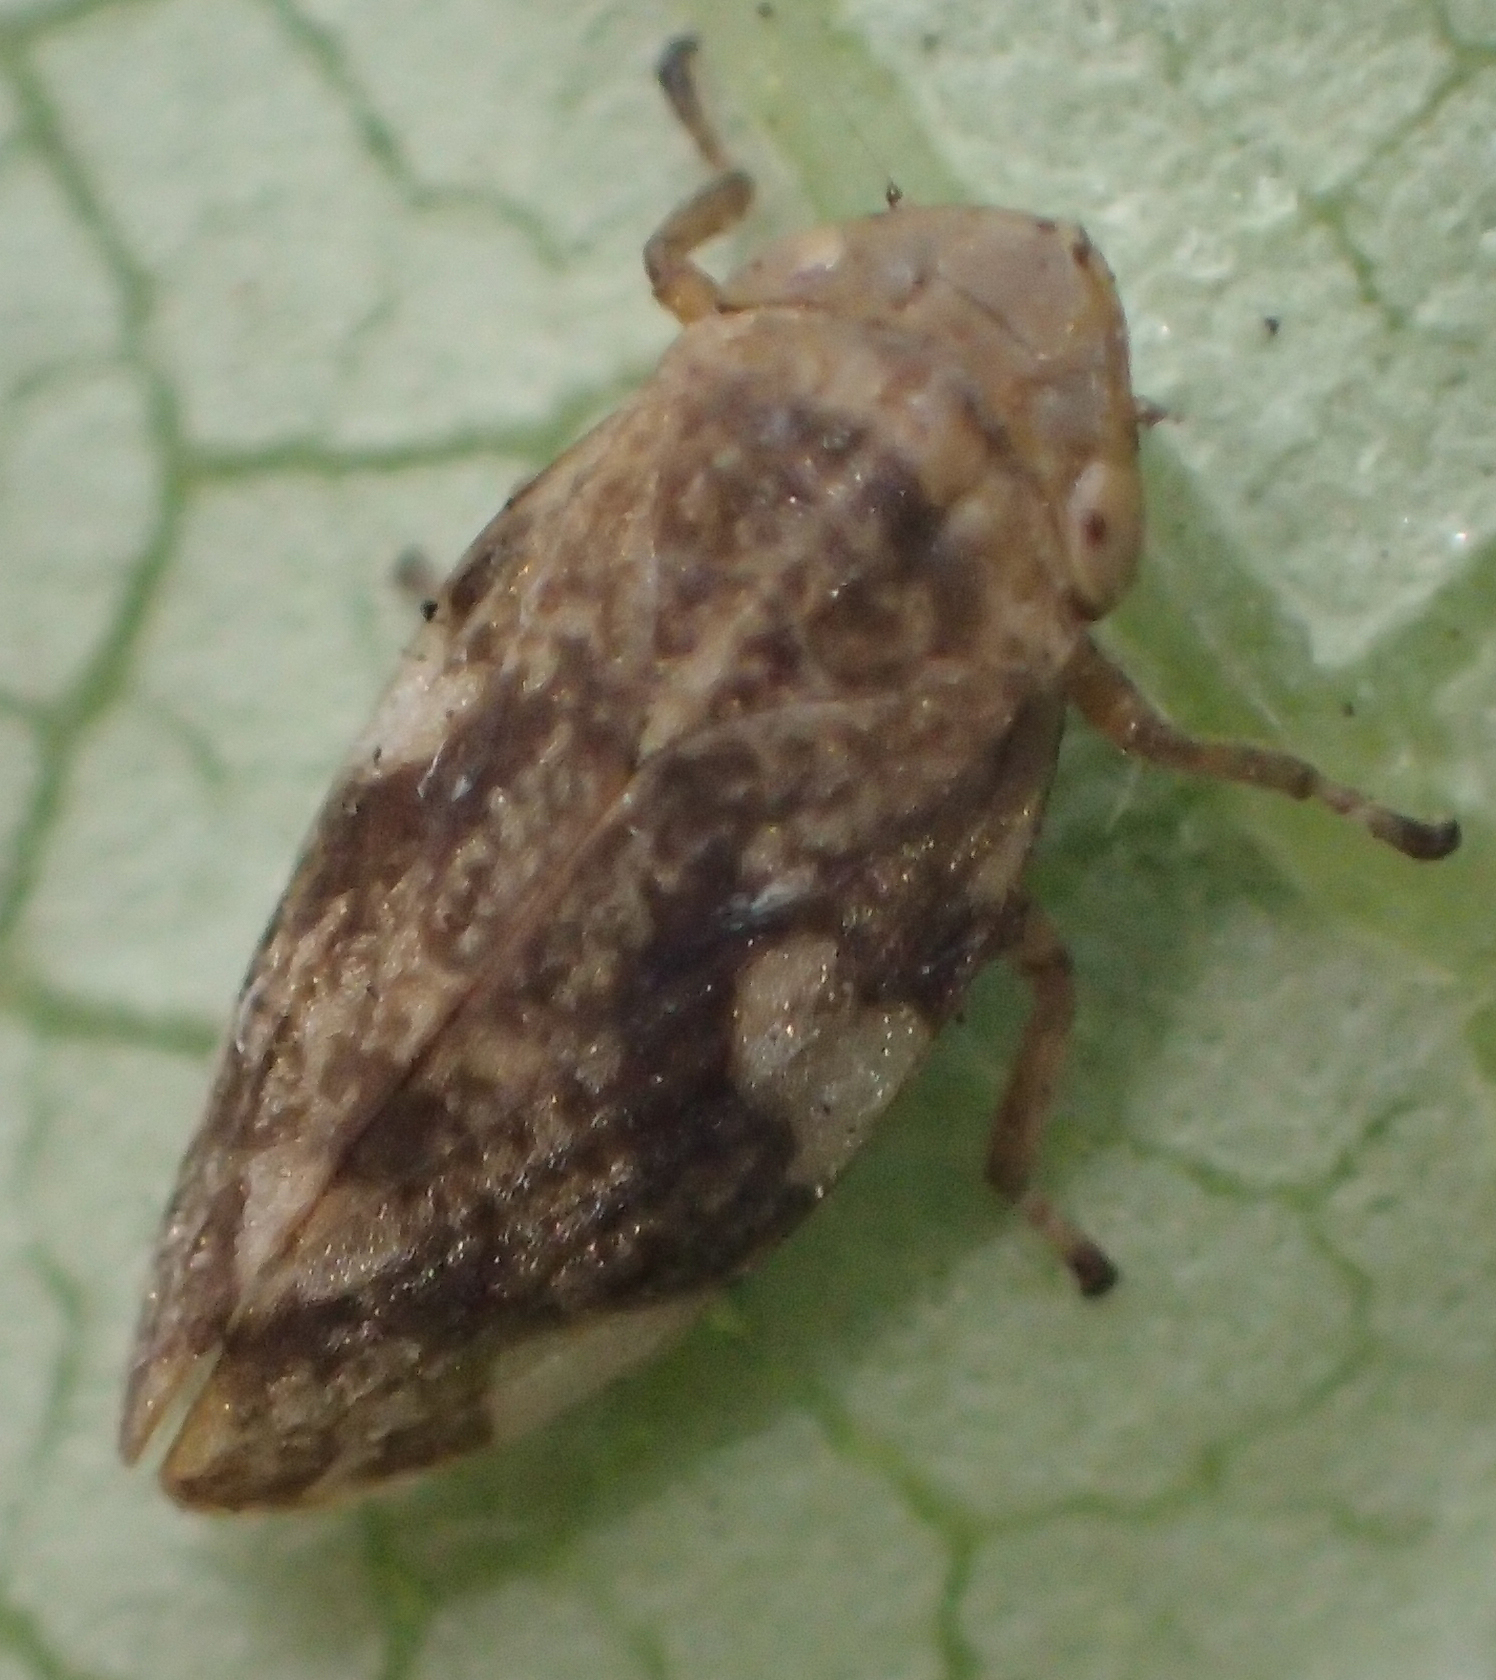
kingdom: Animalia
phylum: Arthropoda
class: Insecta
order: Hemiptera
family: Aphrophoridae
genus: Philaenus
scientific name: Philaenus spumarius
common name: Meadow spittlebug
